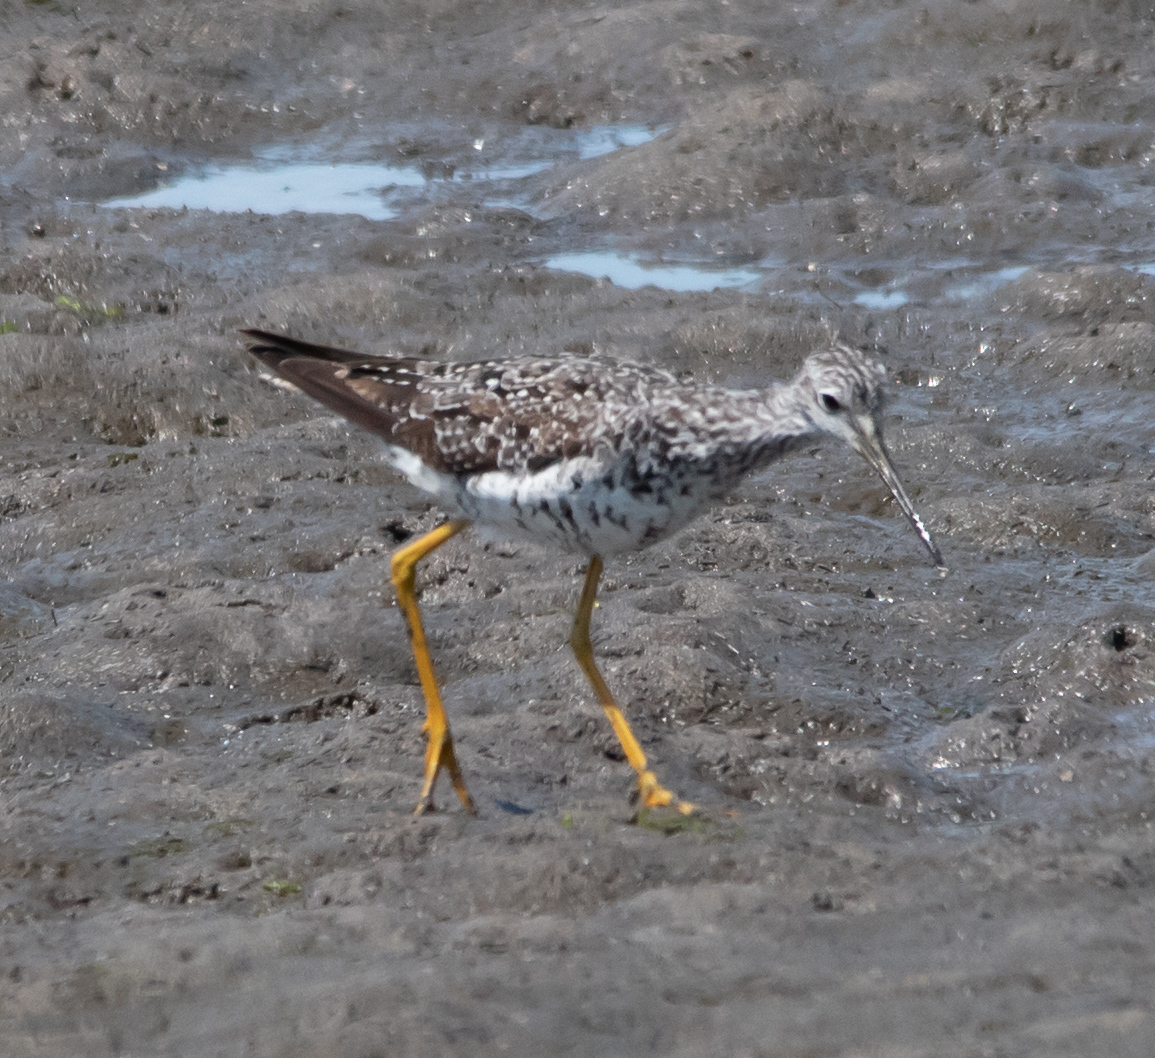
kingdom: Animalia
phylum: Chordata
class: Aves
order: Charadriiformes
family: Scolopacidae
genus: Tringa
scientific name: Tringa melanoleuca
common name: Greater yellowlegs
